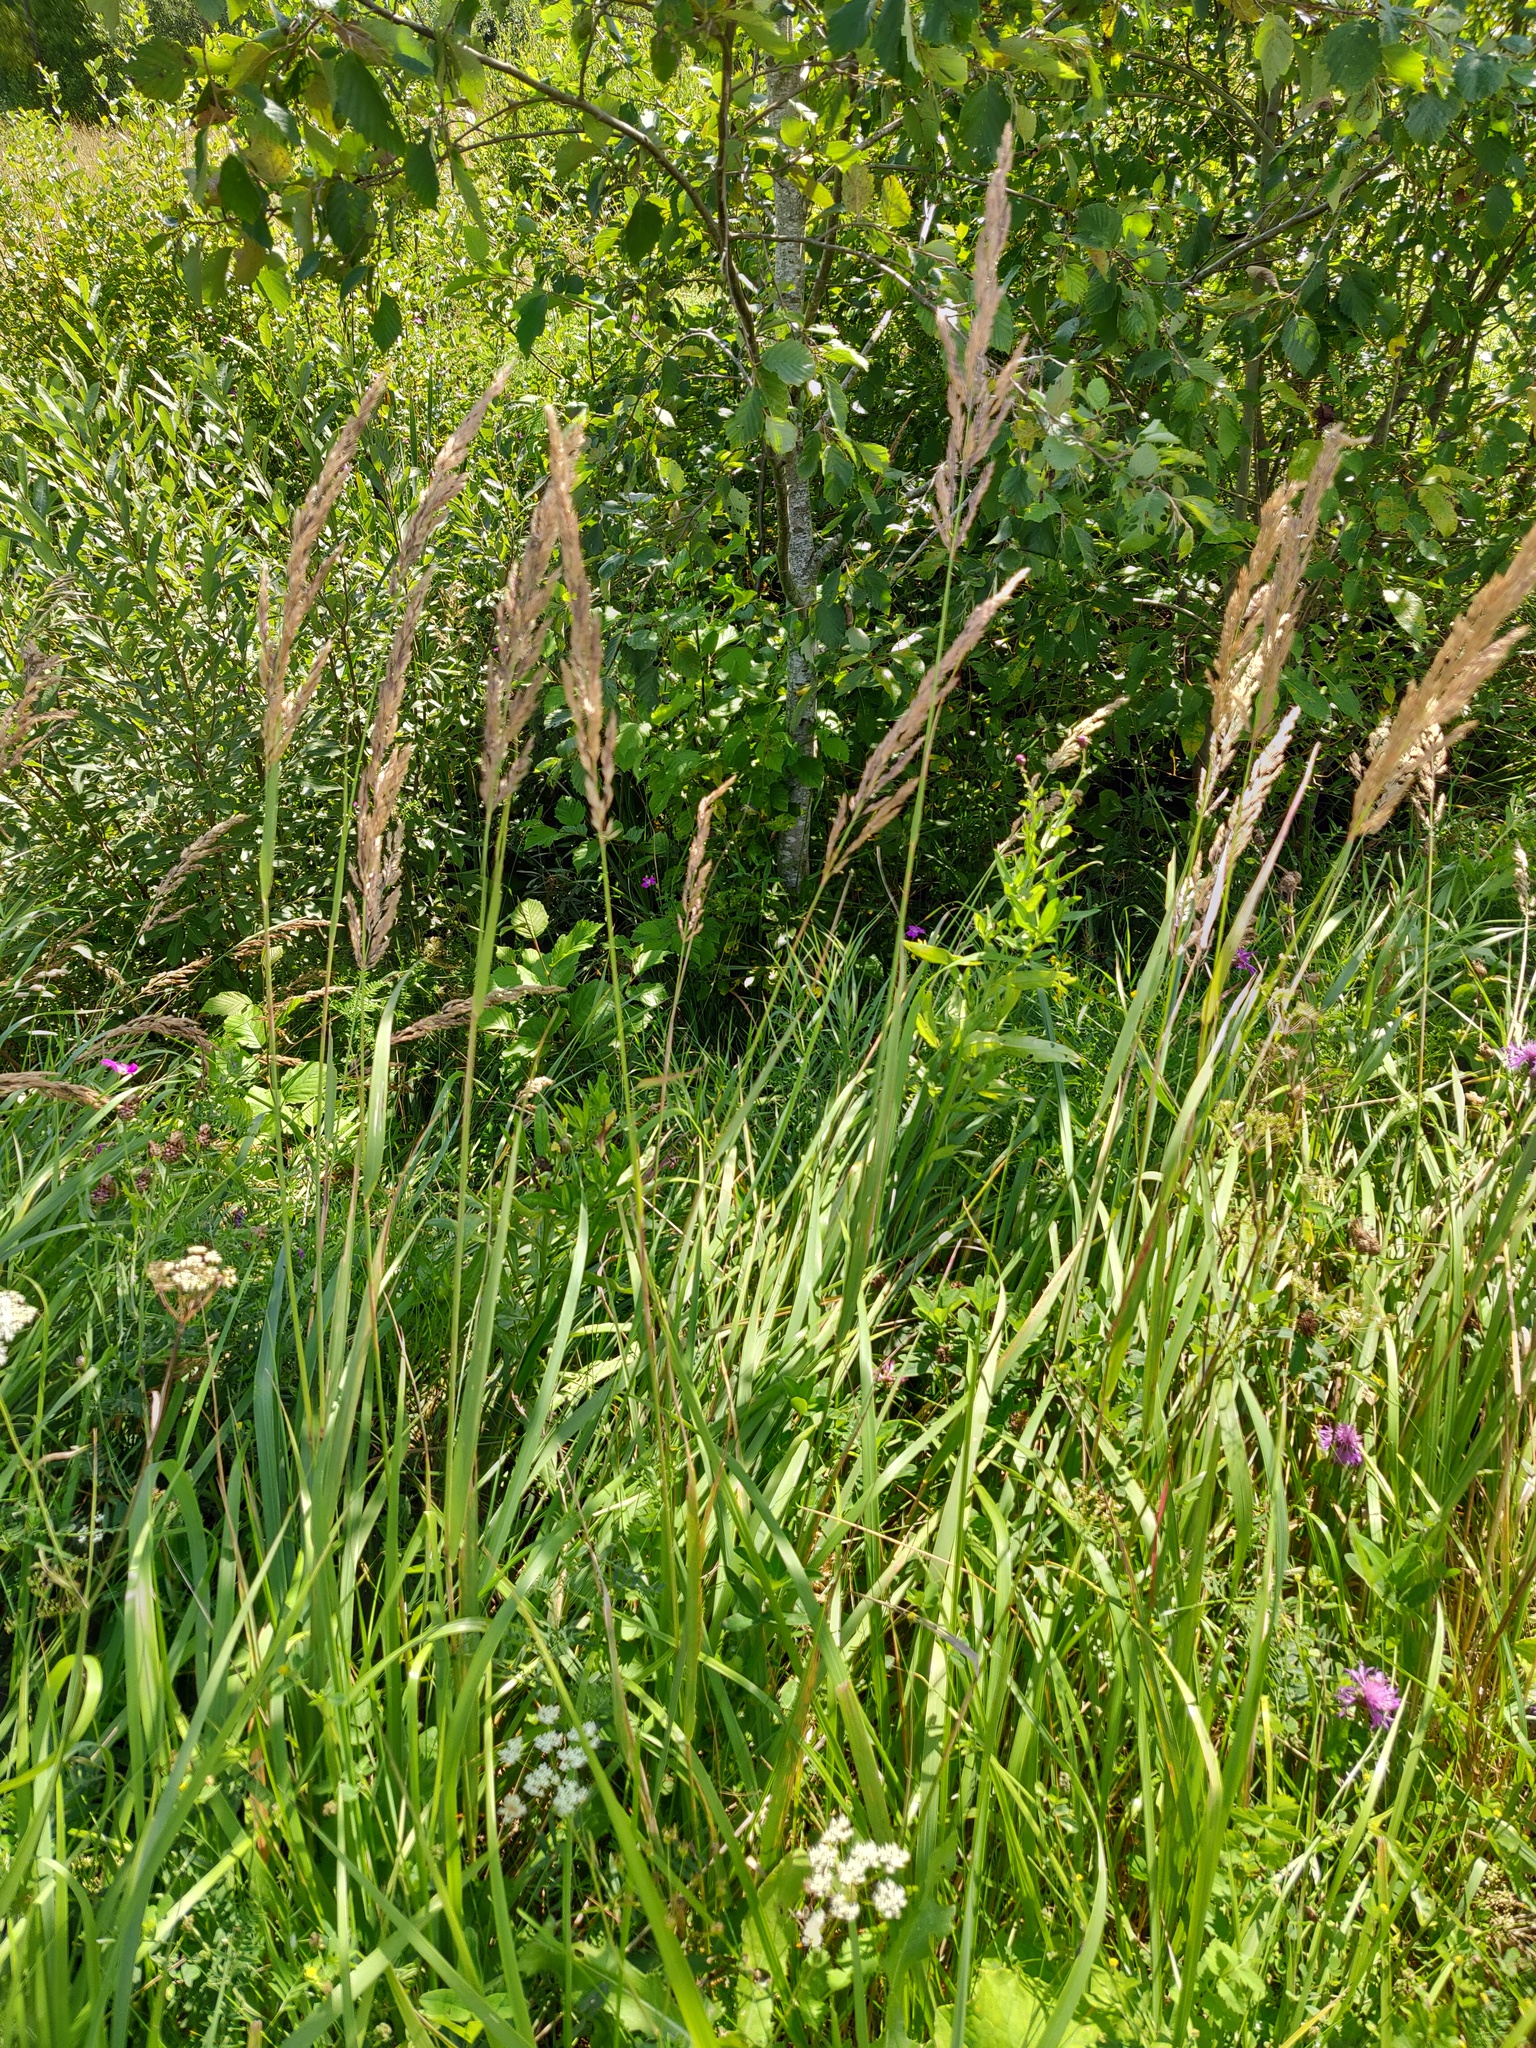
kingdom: Plantae
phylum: Tracheophyta
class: Liliopsida
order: Poales
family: Poaceae
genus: Calamagrostis
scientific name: Calamagrostis epigejos
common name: Wood small-reed
